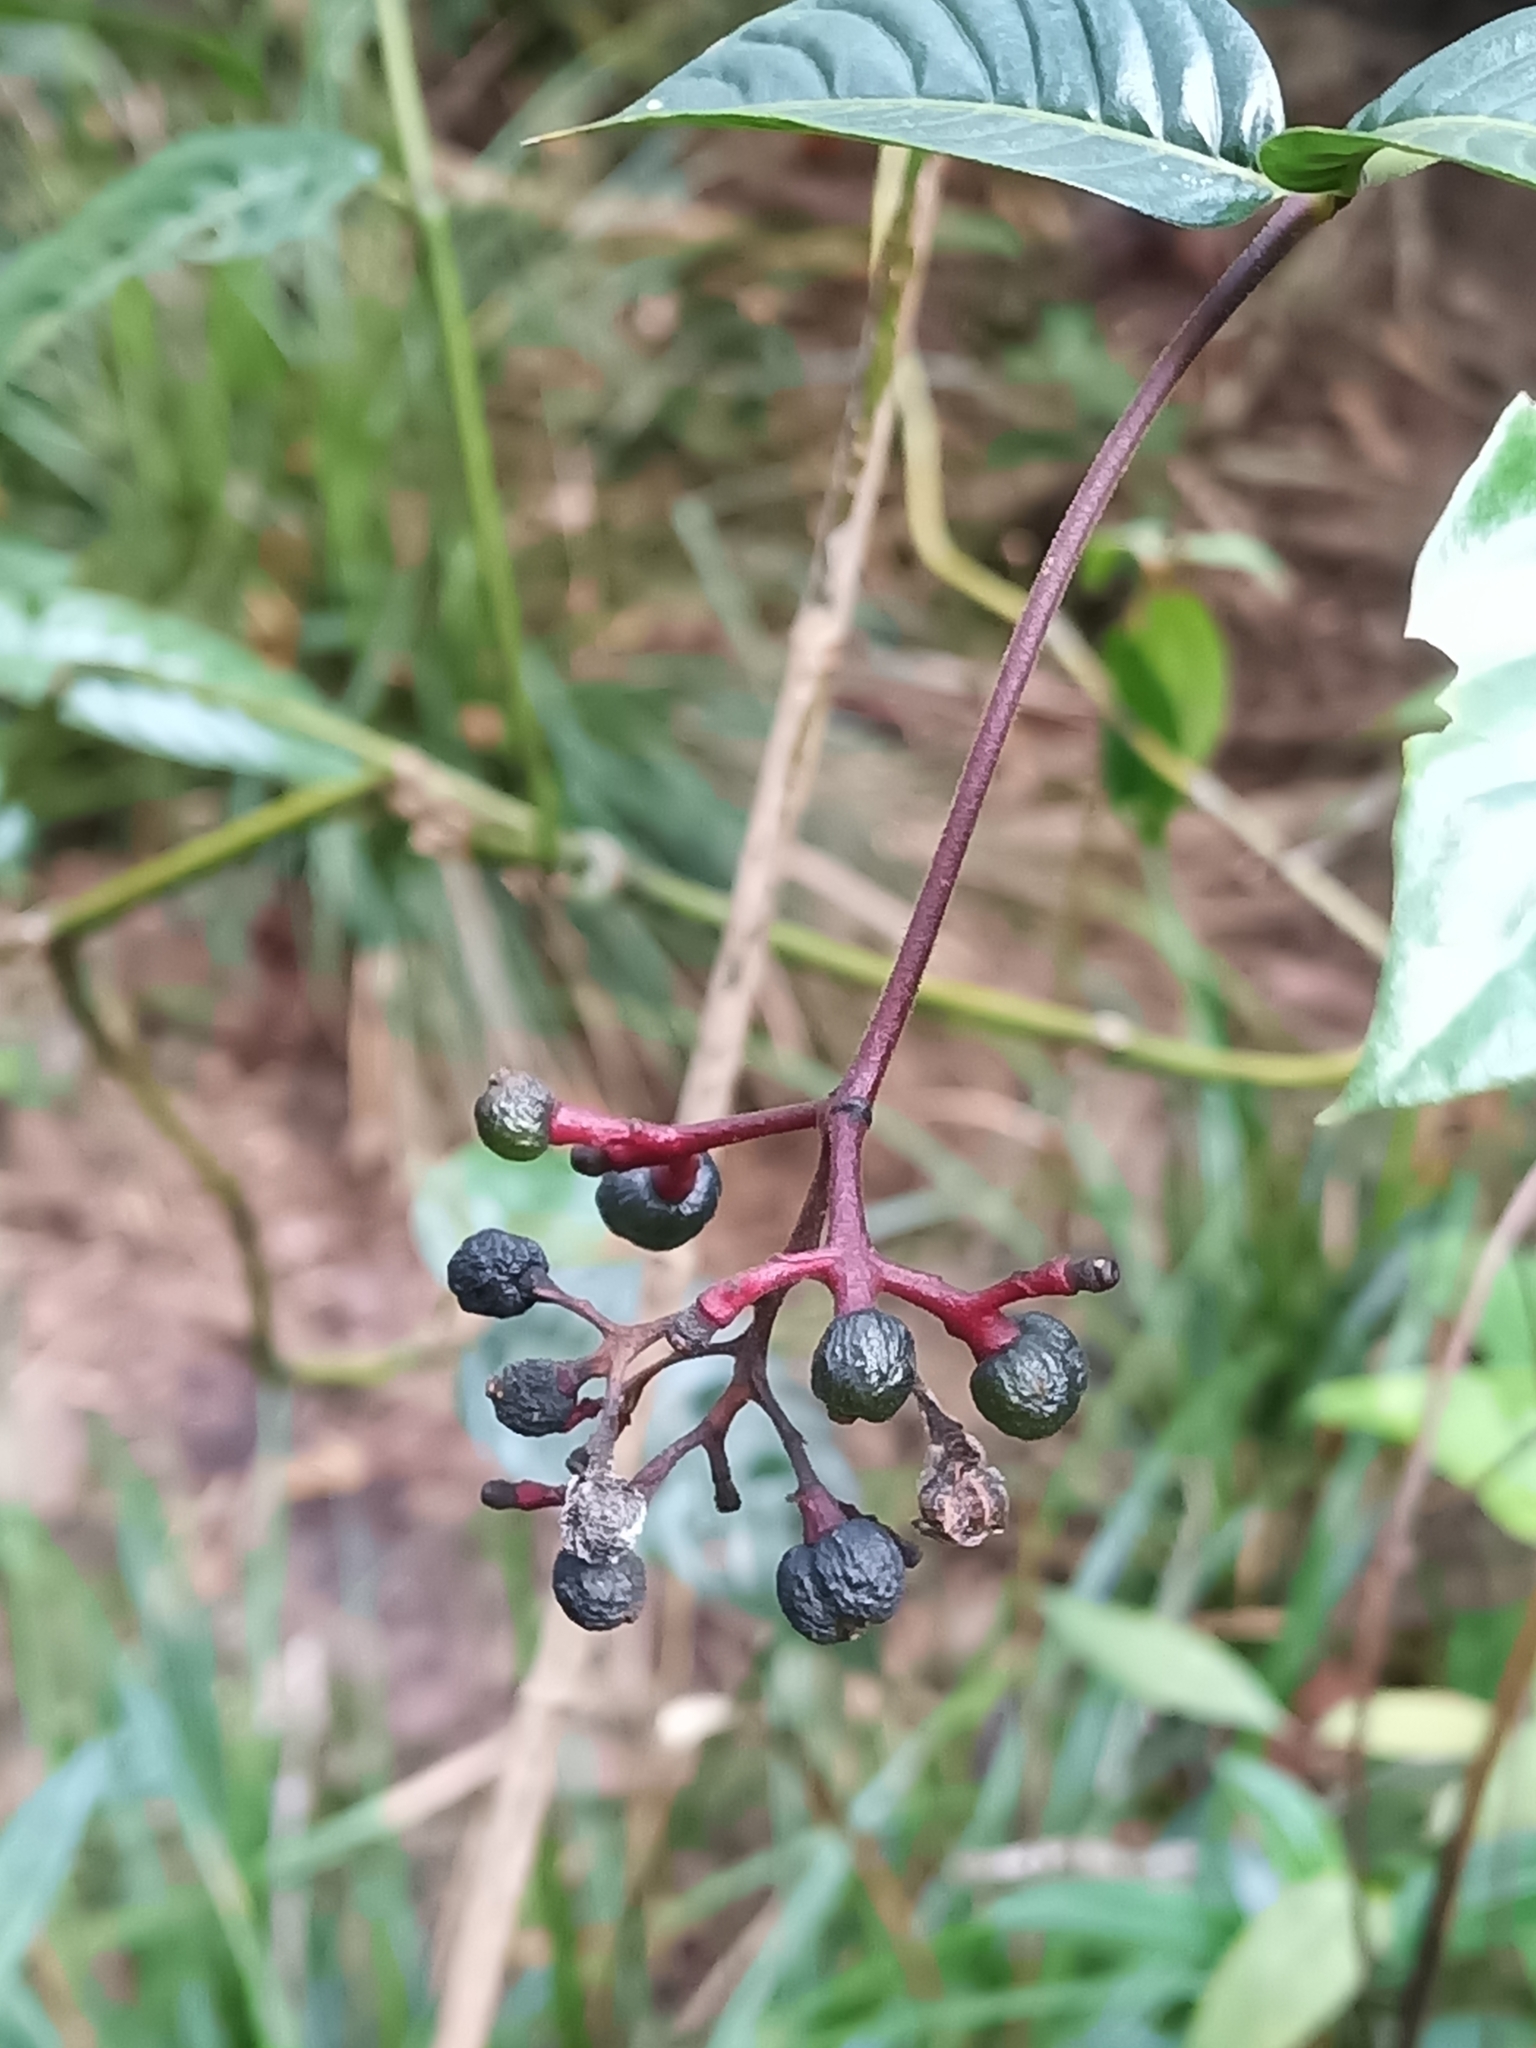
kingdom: Plantae
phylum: Tracheophyta
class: Magnoliopsida
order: Gentianales
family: Rubiaceae
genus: Palicourea
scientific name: Palicourea longiflora
